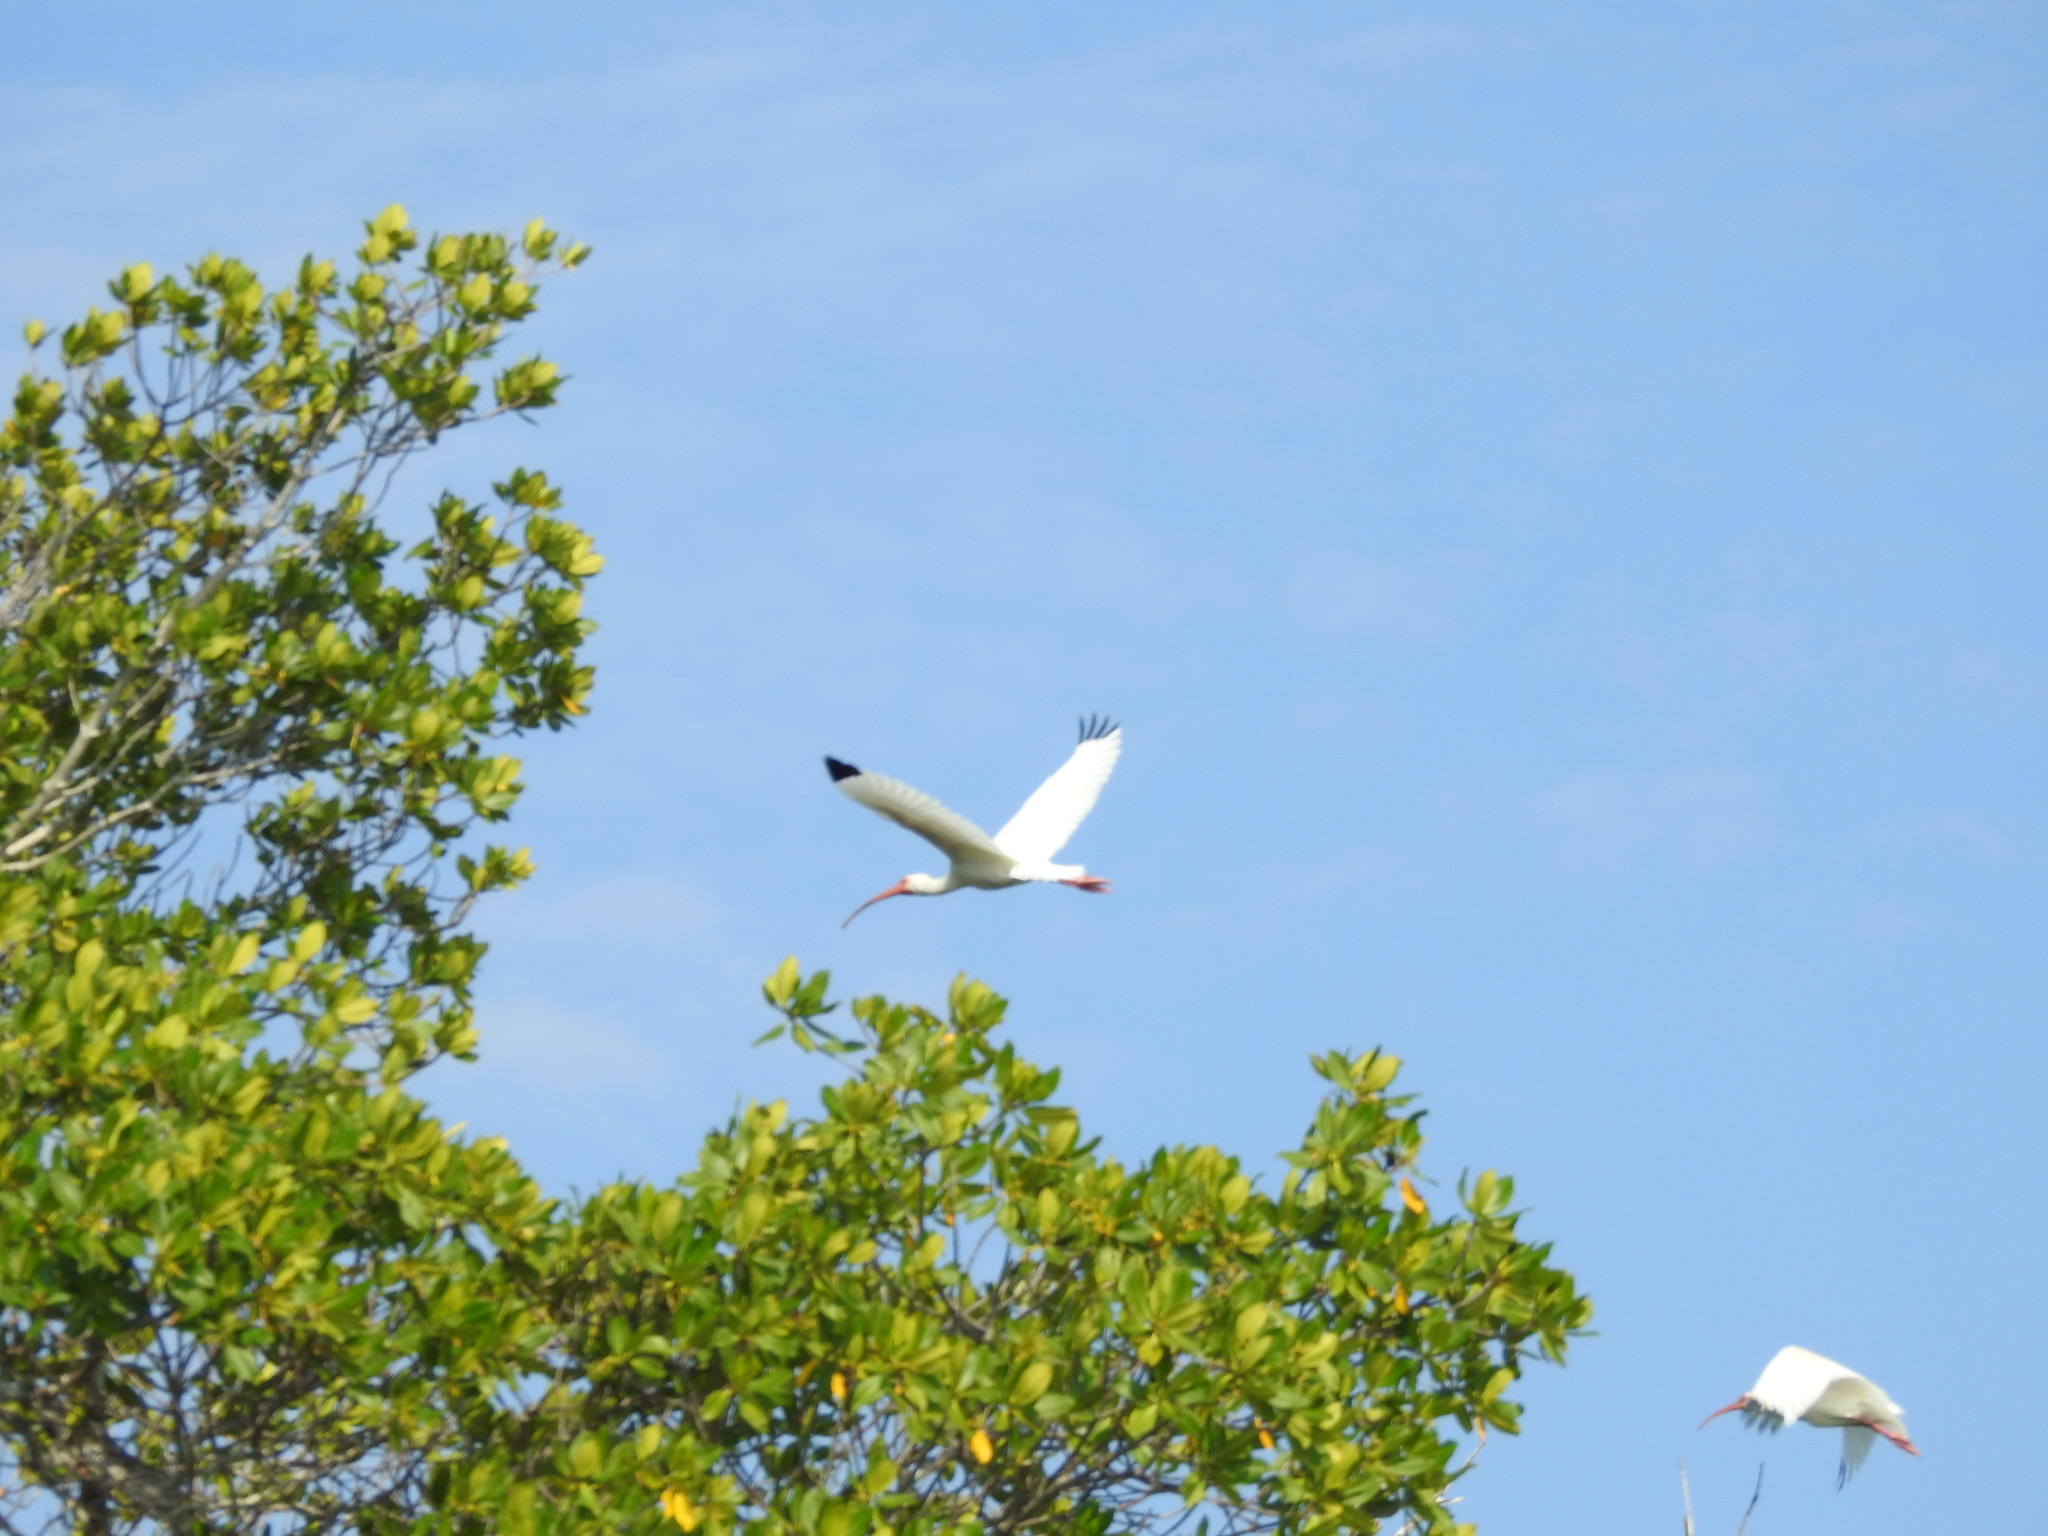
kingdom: Animalia
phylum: Chordata
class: Aves
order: Pelecaniformes
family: Threskiornithidae
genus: Eudocimus
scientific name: Eudocimus albus
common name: White ibis
